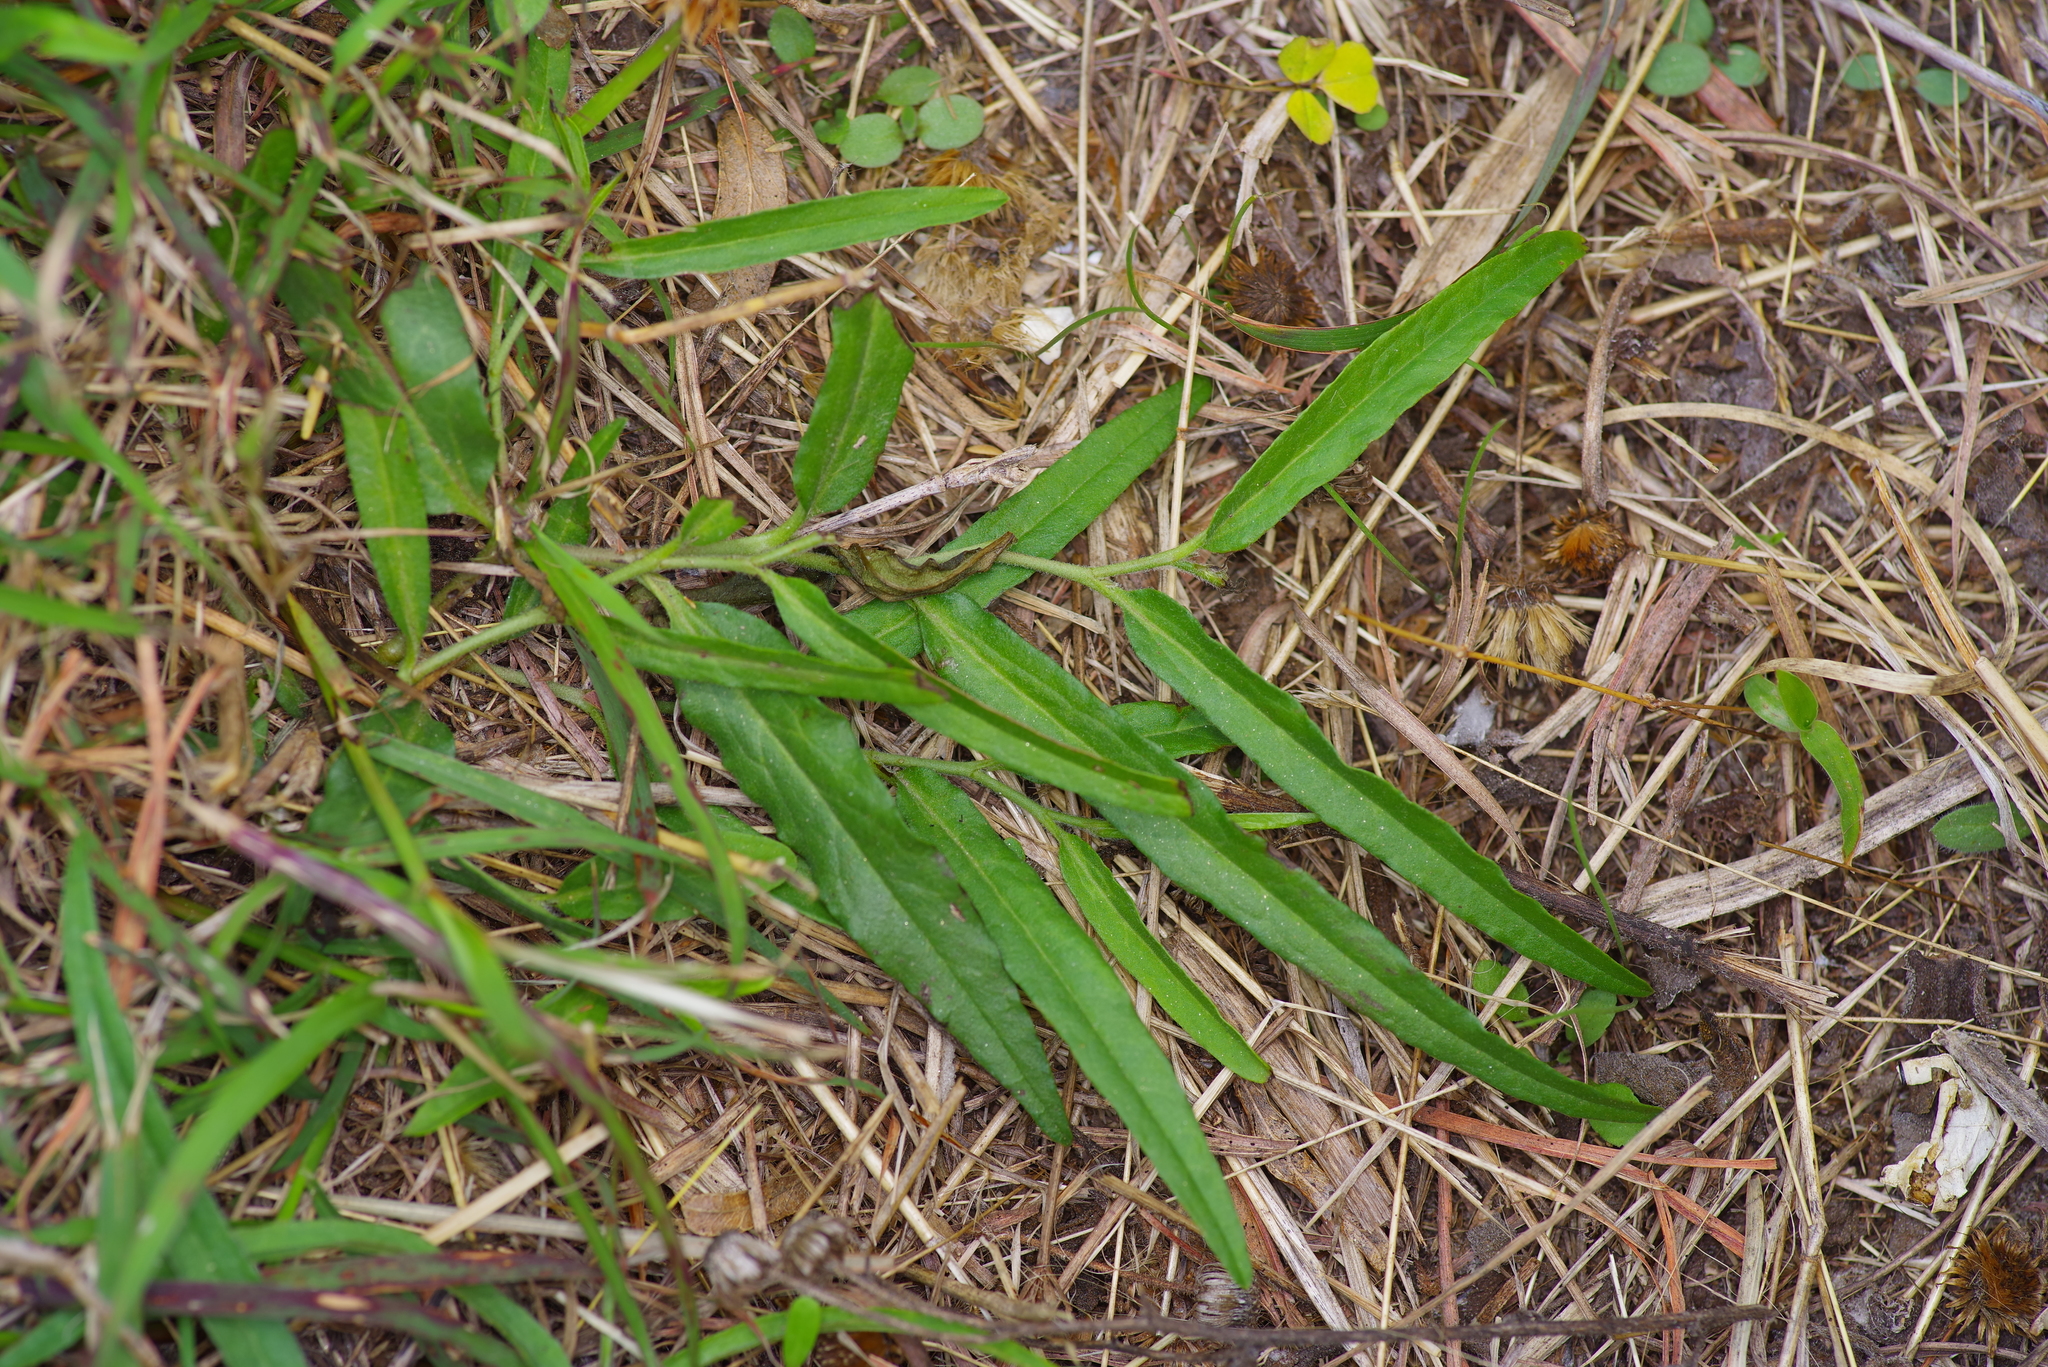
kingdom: Plantae
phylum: Tracheophyta
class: Magnoliopsida
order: Piperales
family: Aristolochiaceae
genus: Aristolochia
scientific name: Aristolochia erecta
